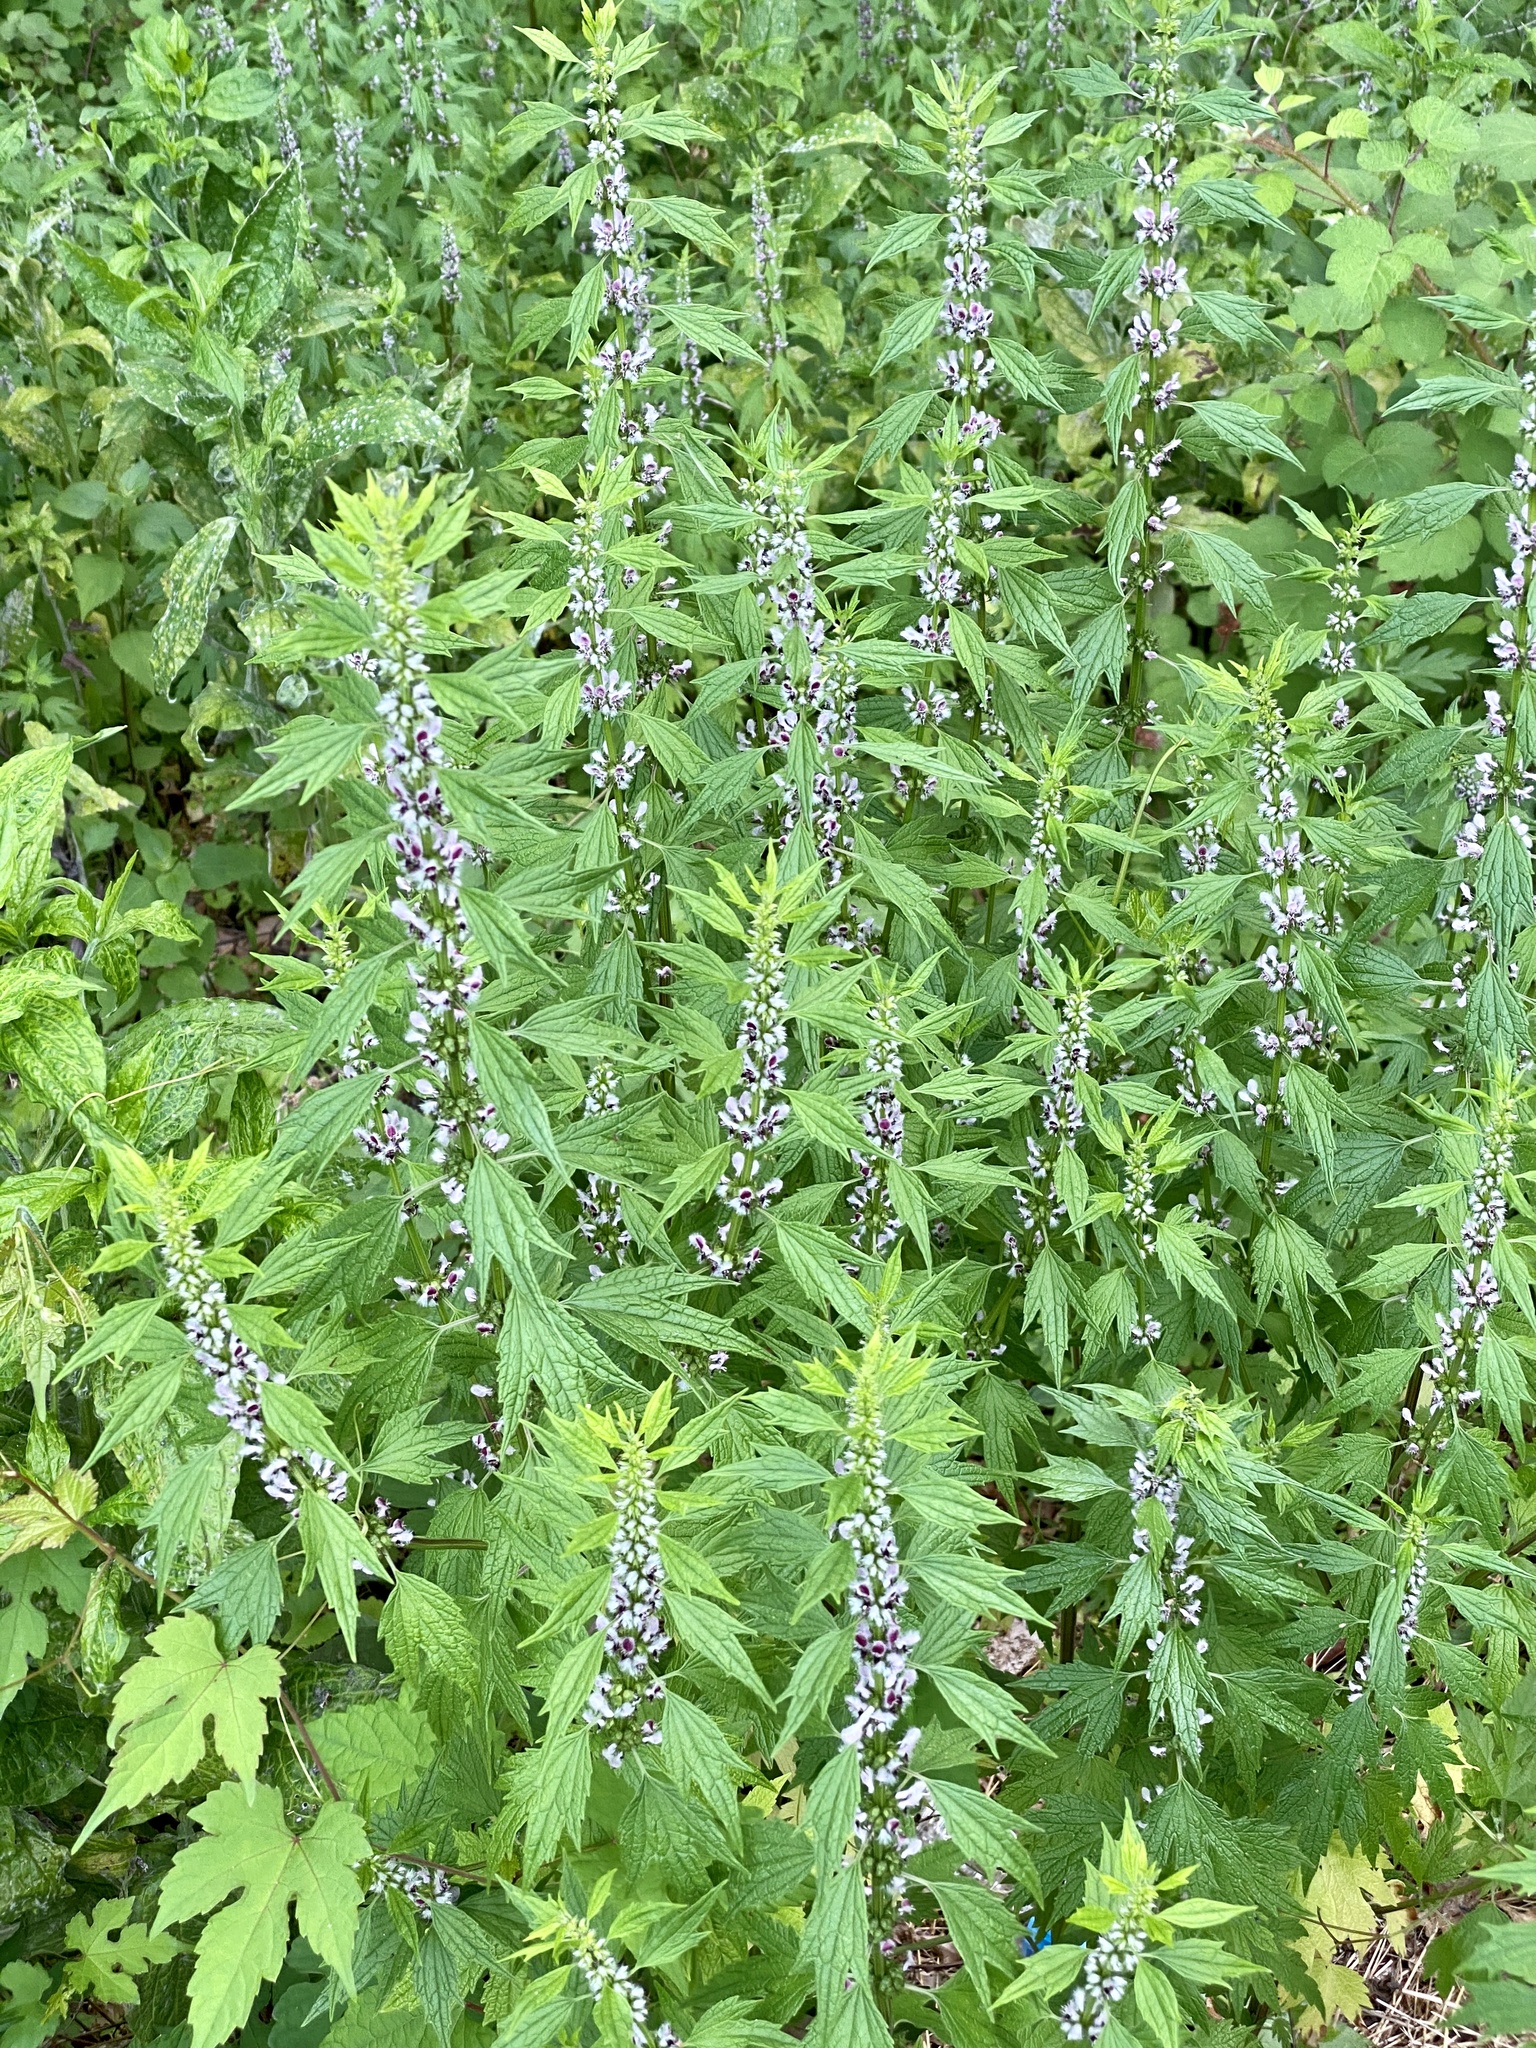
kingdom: Plantae
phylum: Tracheophyta
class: Magnoliopsida
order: Lamiales
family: Lamiaceae
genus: Leonurus
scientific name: Leonurus cardiaca
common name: Motherwort
